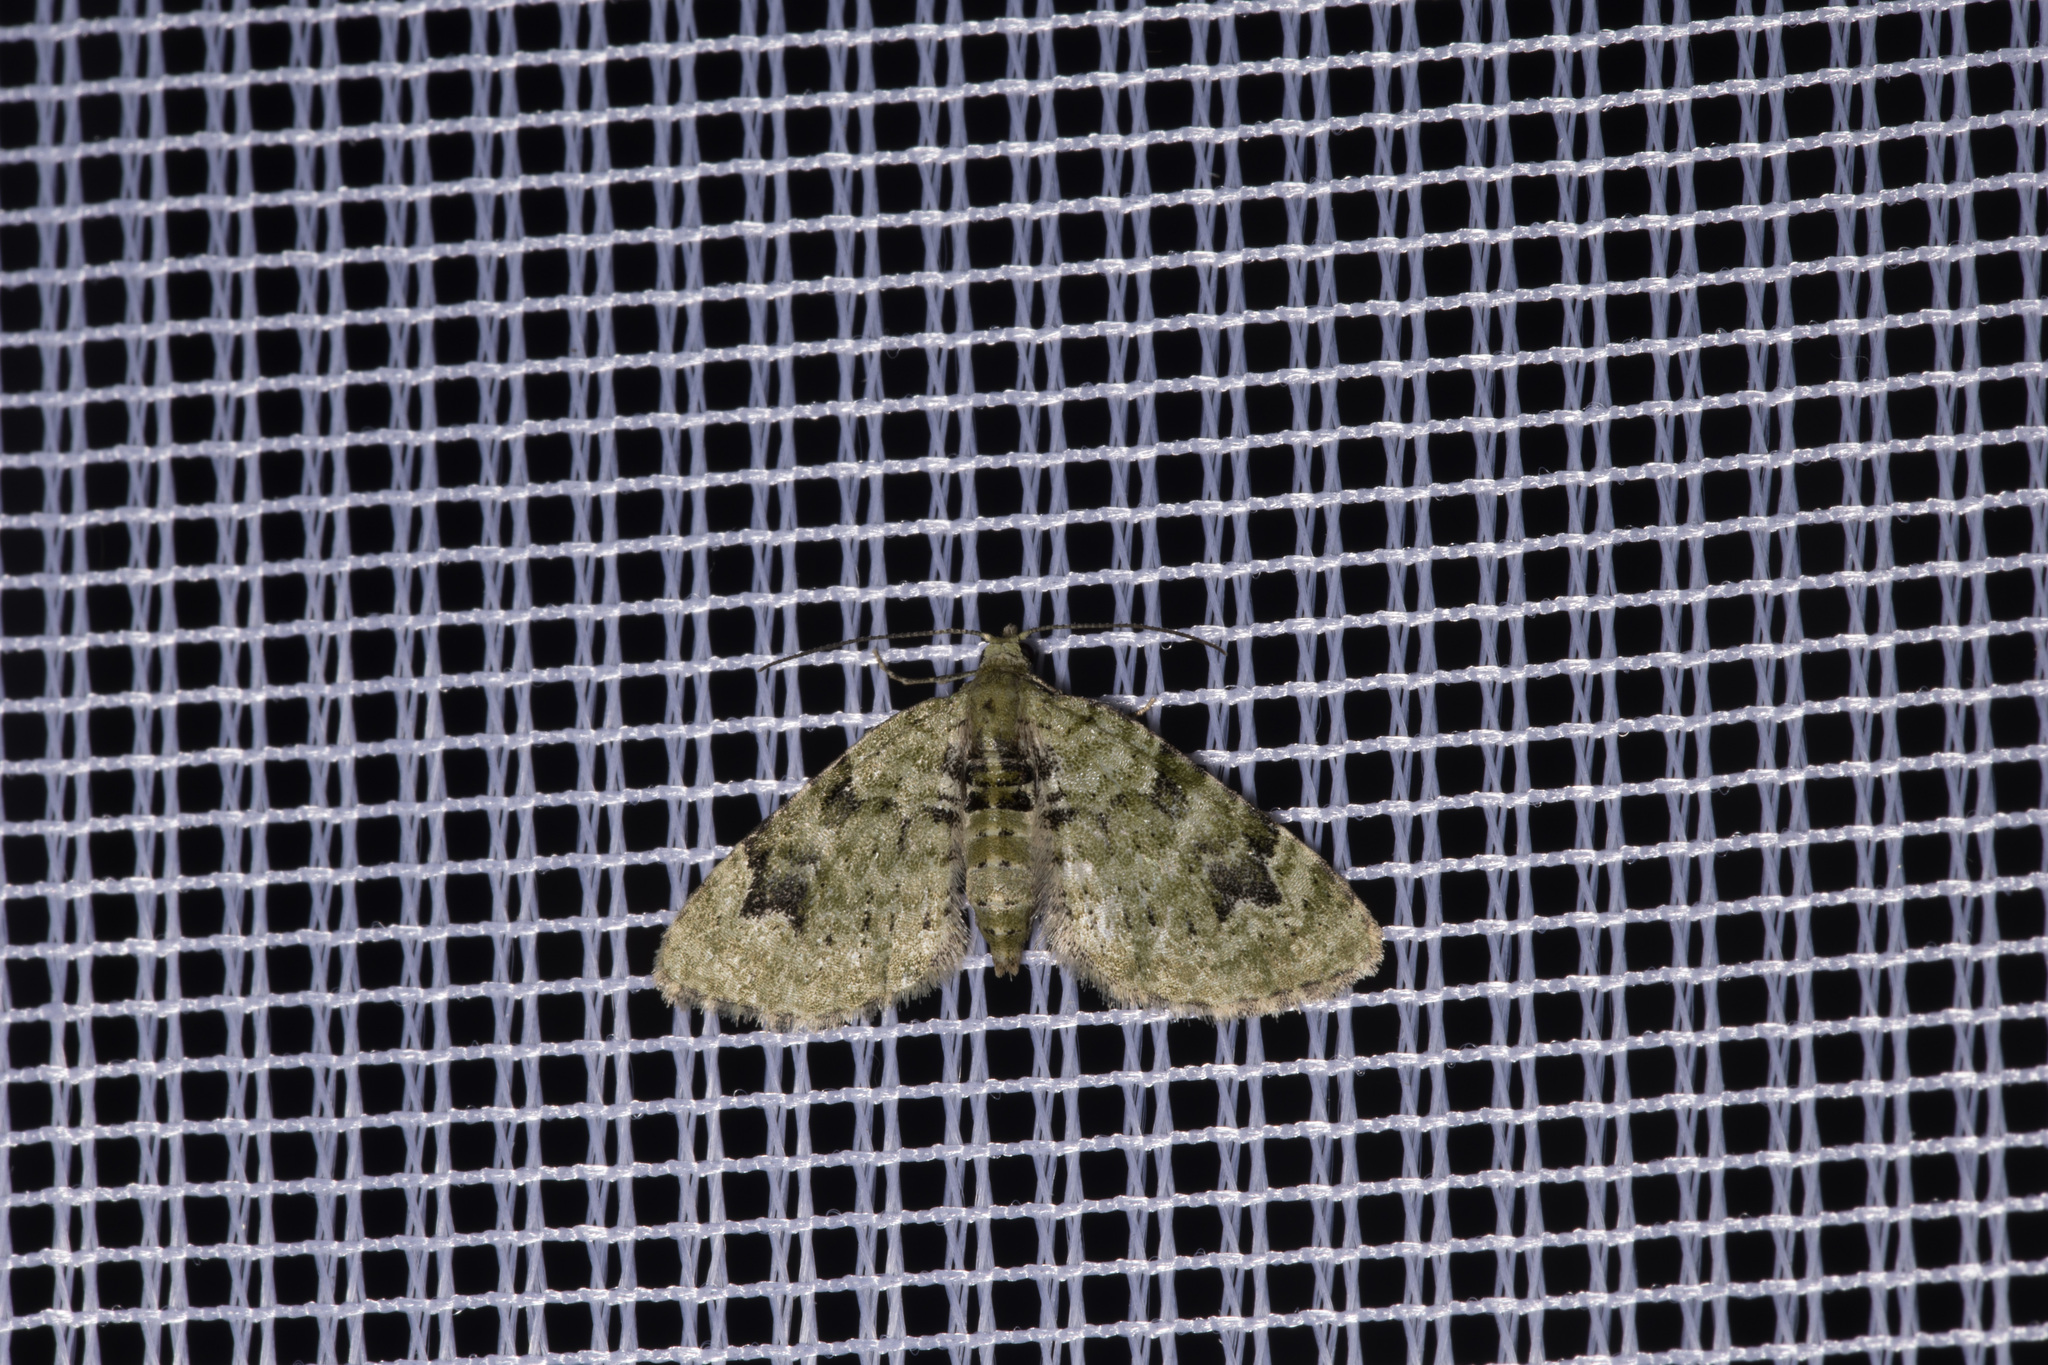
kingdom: Animalia
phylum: Arthropoda
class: Insecta
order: Lepidoptera
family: Geometridae
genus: Chloroclystis
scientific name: Chloroclystis v-ata
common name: V-pug
